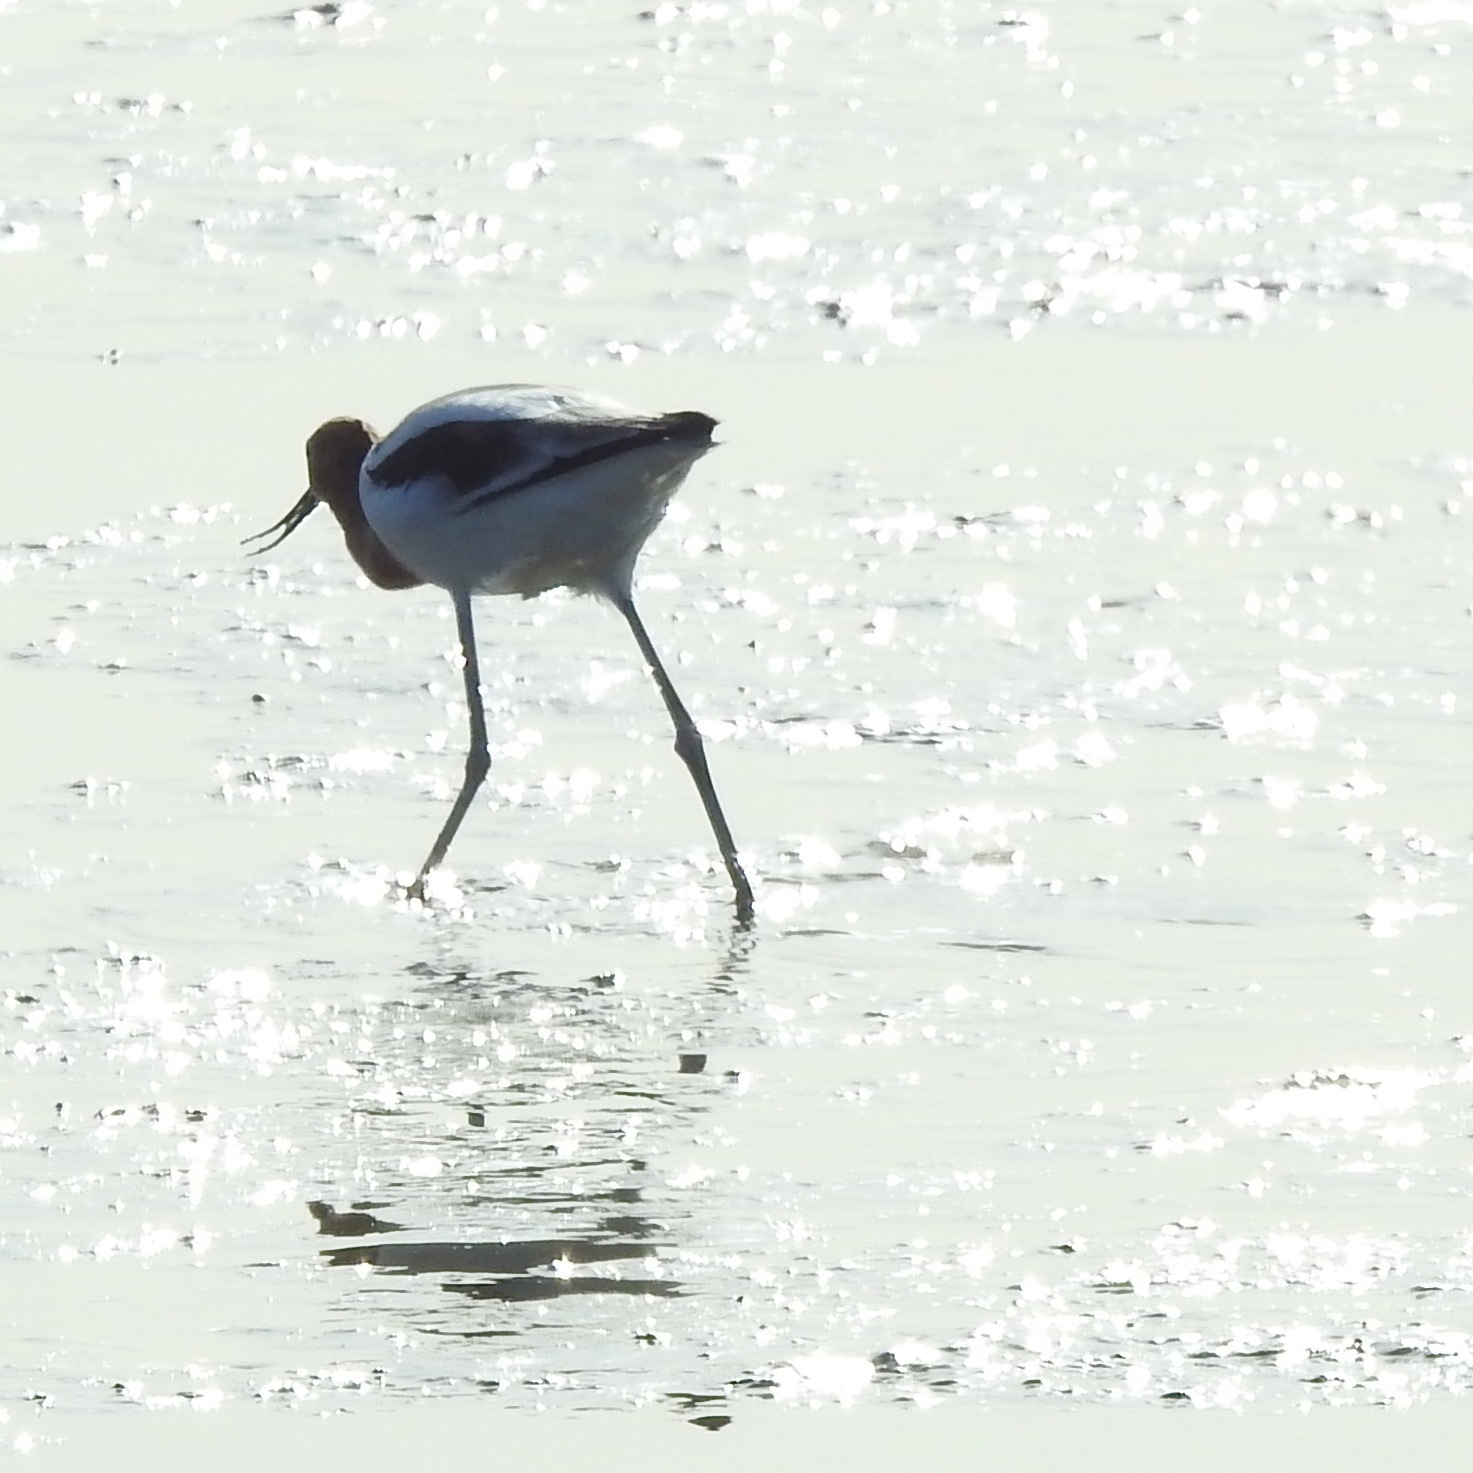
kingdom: Animalia
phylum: Chordata
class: Aves
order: Charadriiformes
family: Recurvirostridae
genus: Recurvirostra
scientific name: Recurvirostra americana
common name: American avocet
